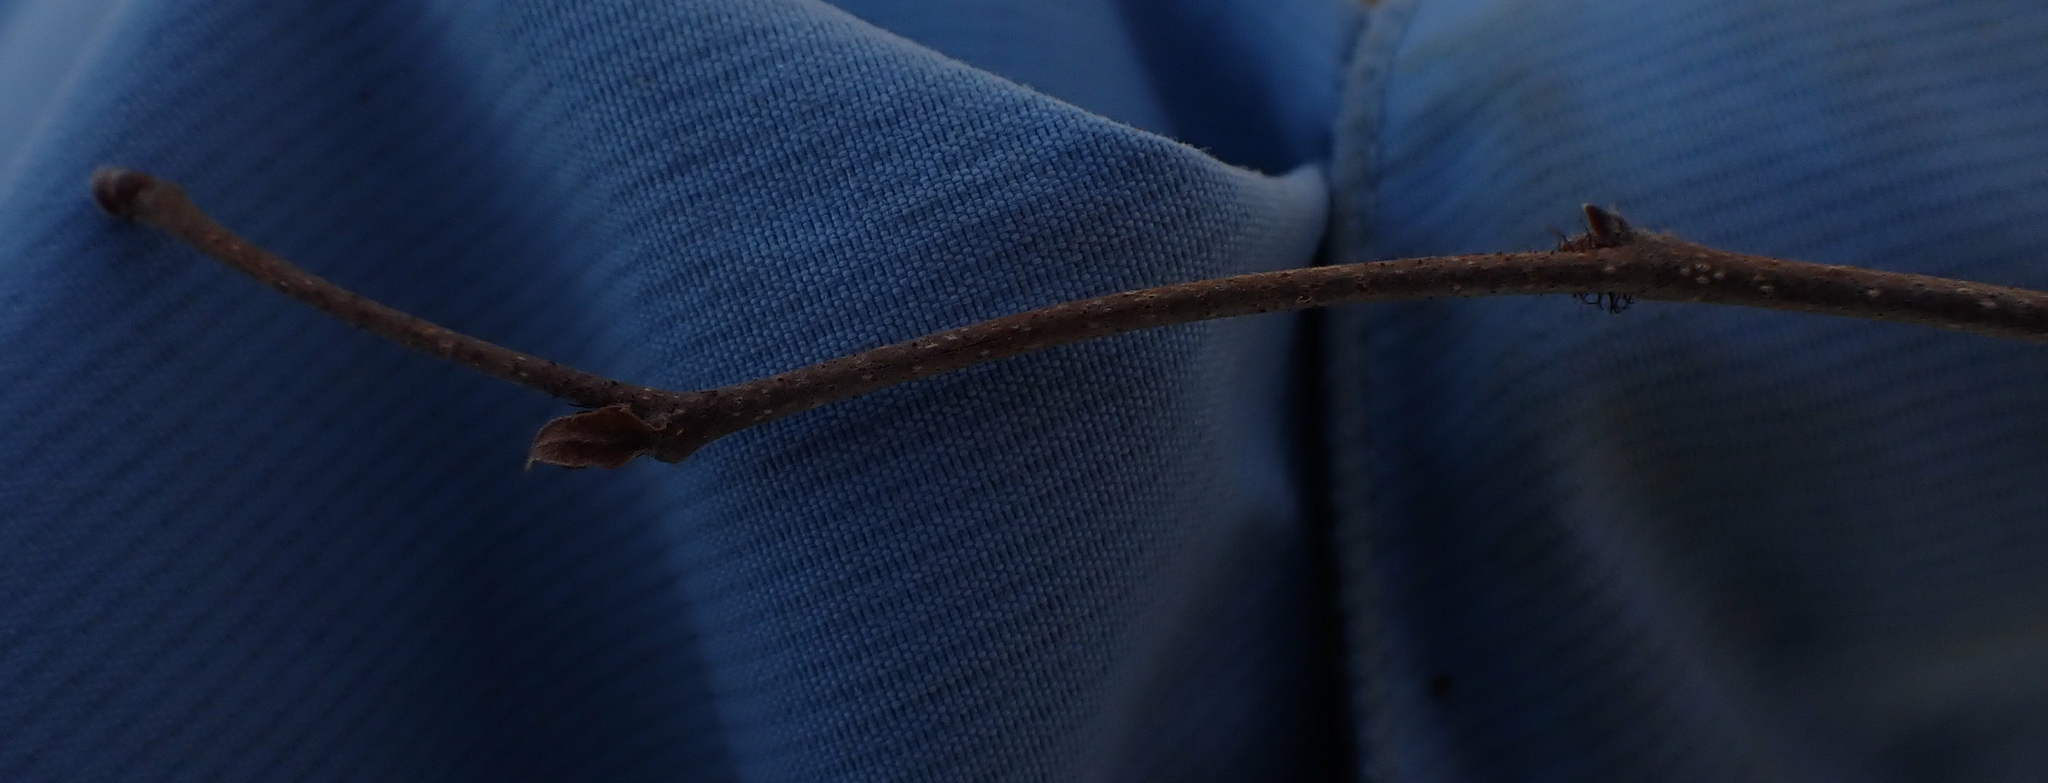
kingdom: Plantae
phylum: Tracheophyta
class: Magnoliopsida
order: Fagales
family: Betulaceae
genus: Corylus
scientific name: Corylus cornuta
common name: Beaked hazel
